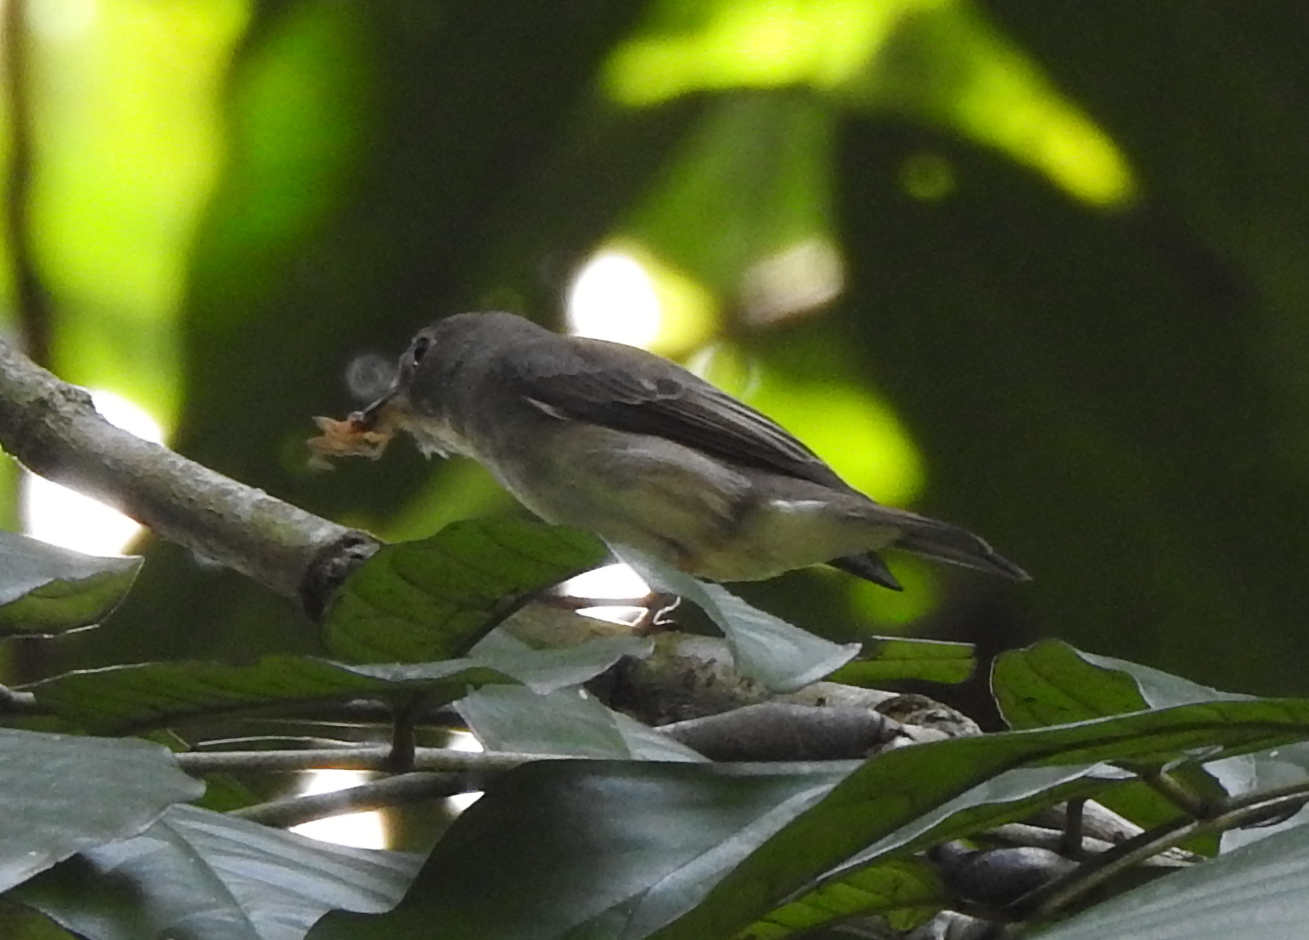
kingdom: Animalia
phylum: Chordata
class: Aves
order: Passeriformes
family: Muscicapidae
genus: Muscicapa
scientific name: Muscicapa latirostris
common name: Asian brown flycatcher
